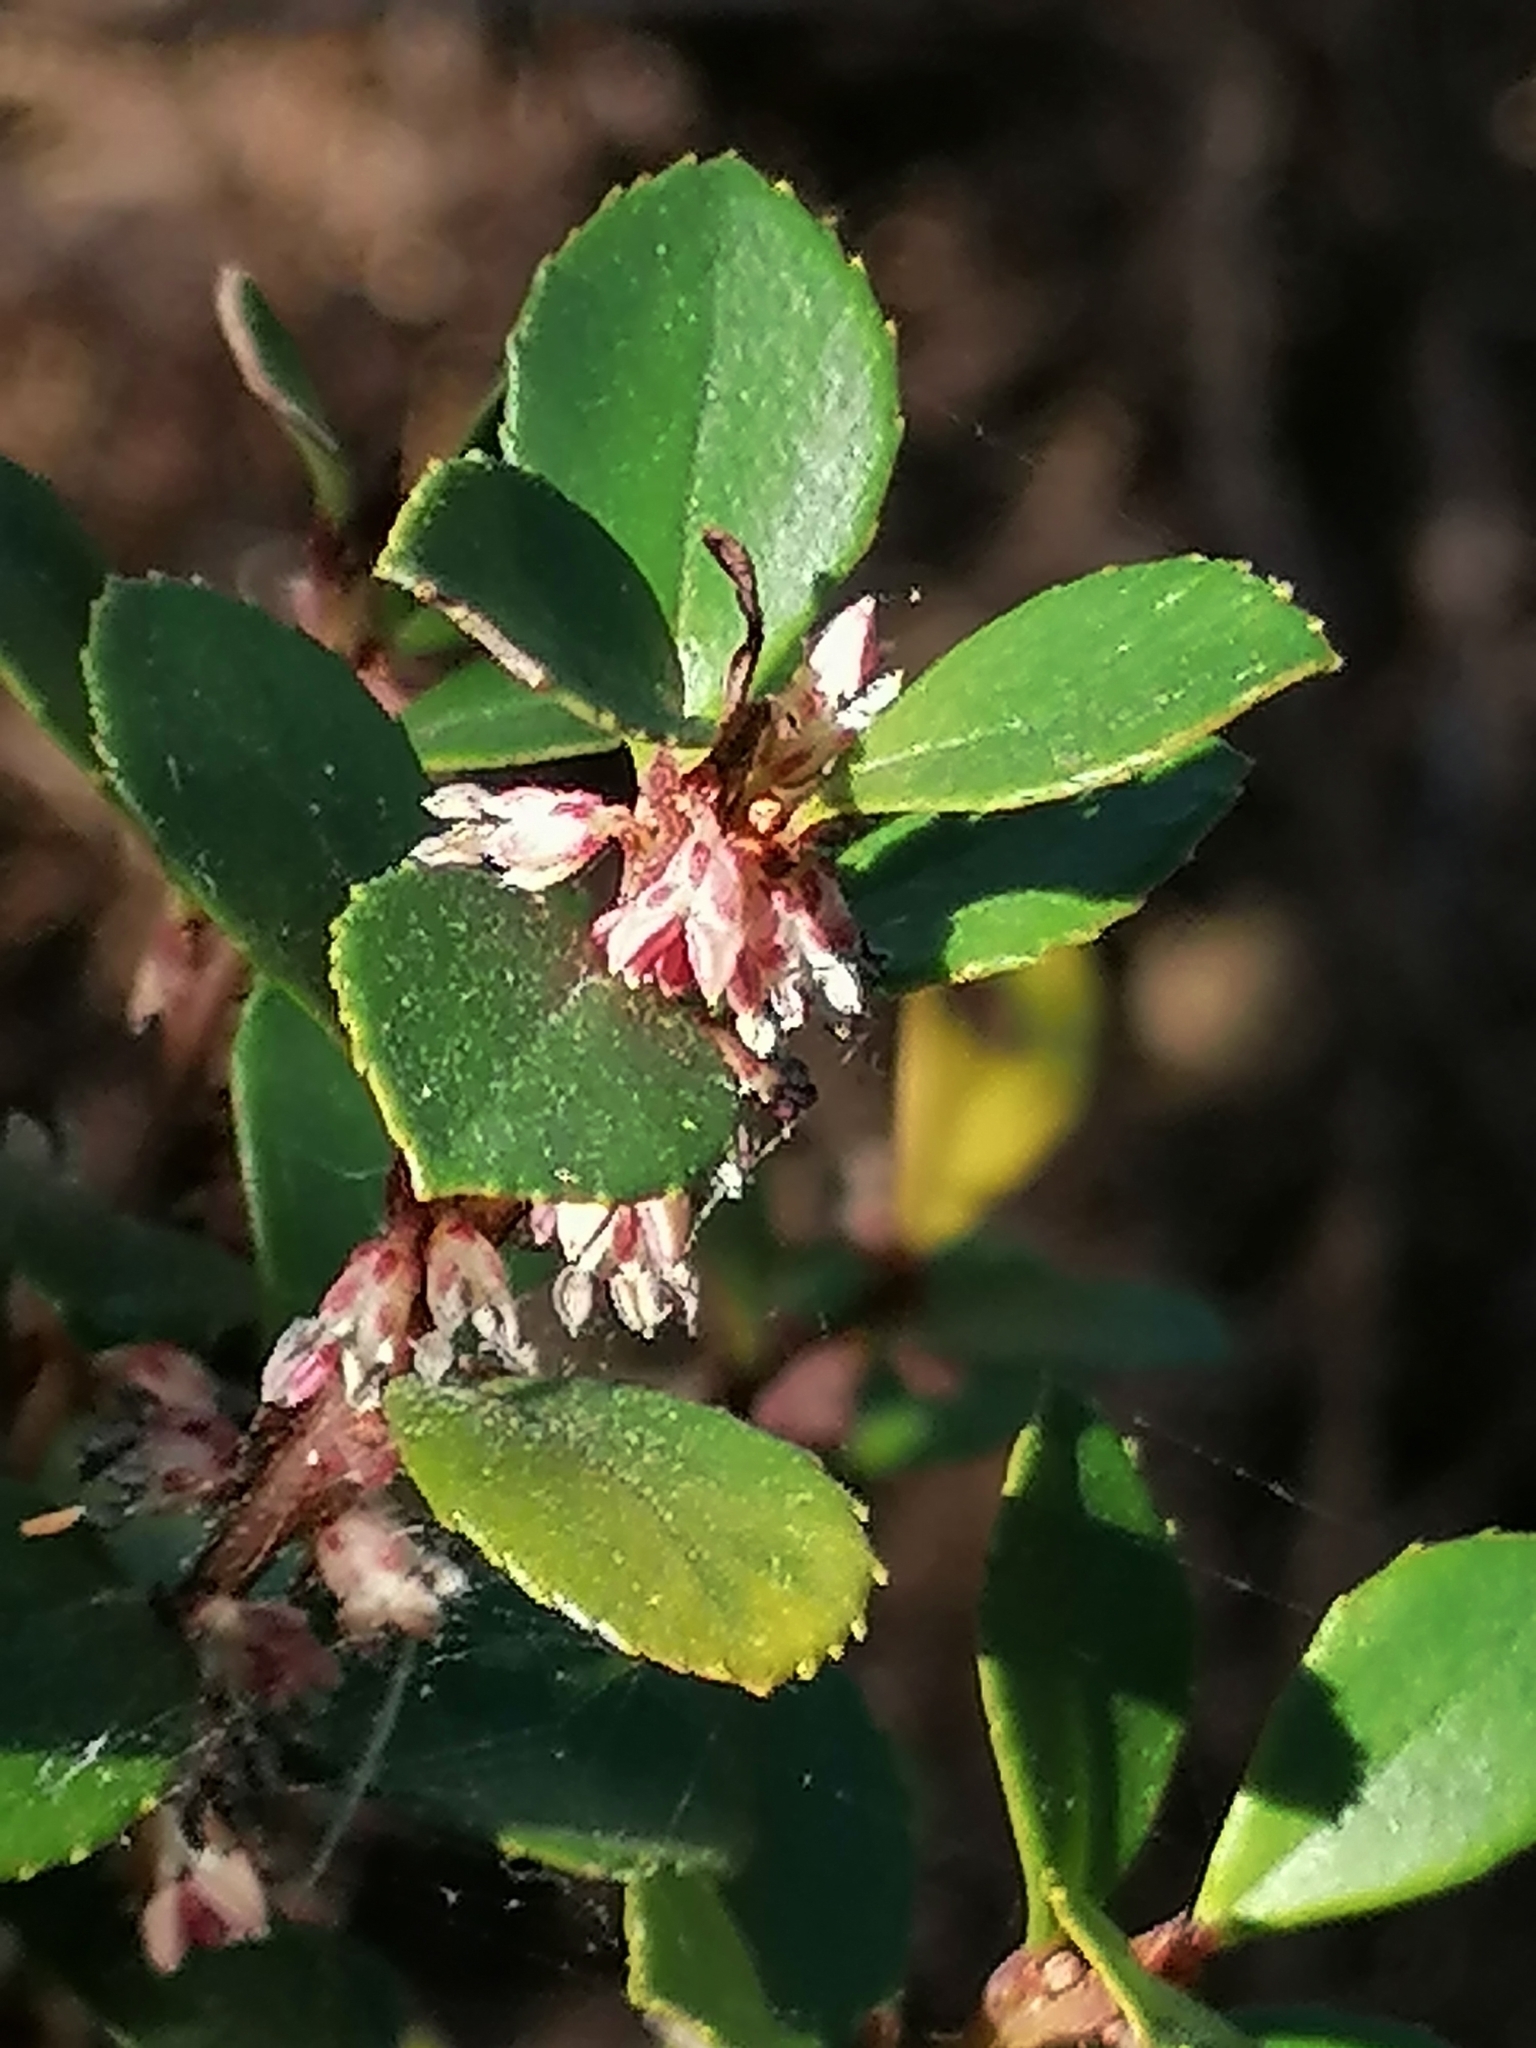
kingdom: Plantae
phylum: Tracheophyta
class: Magnoliopsida
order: Ericales
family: Primulaceae
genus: Myrsine
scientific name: Myrsine africana
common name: African-boxwood
